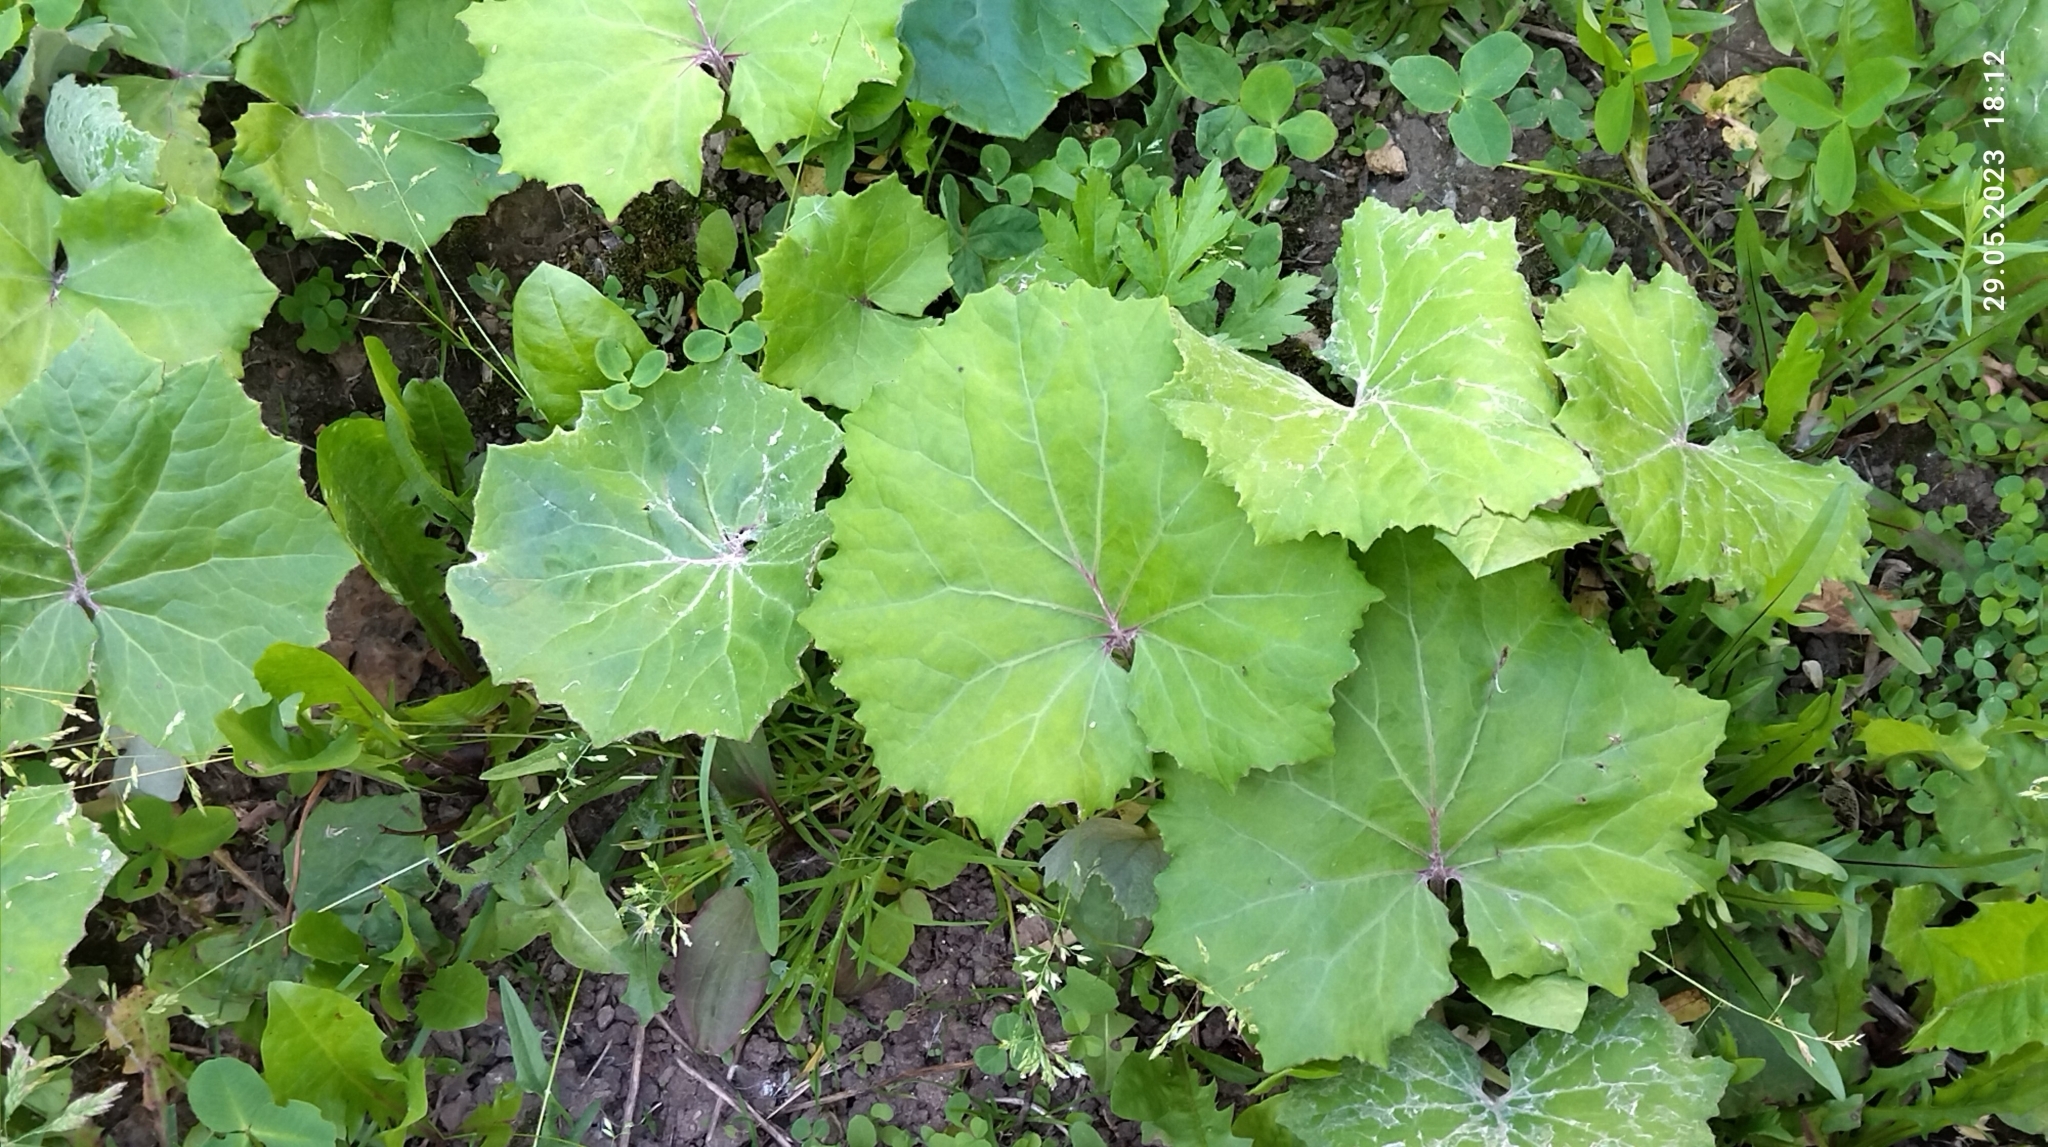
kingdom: Plantae
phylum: Tracheophyta
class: Magnoliopsida
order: Asterales
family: Asteraceae
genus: Tussilago
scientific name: Tussilago farfara
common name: Coltsfoot
